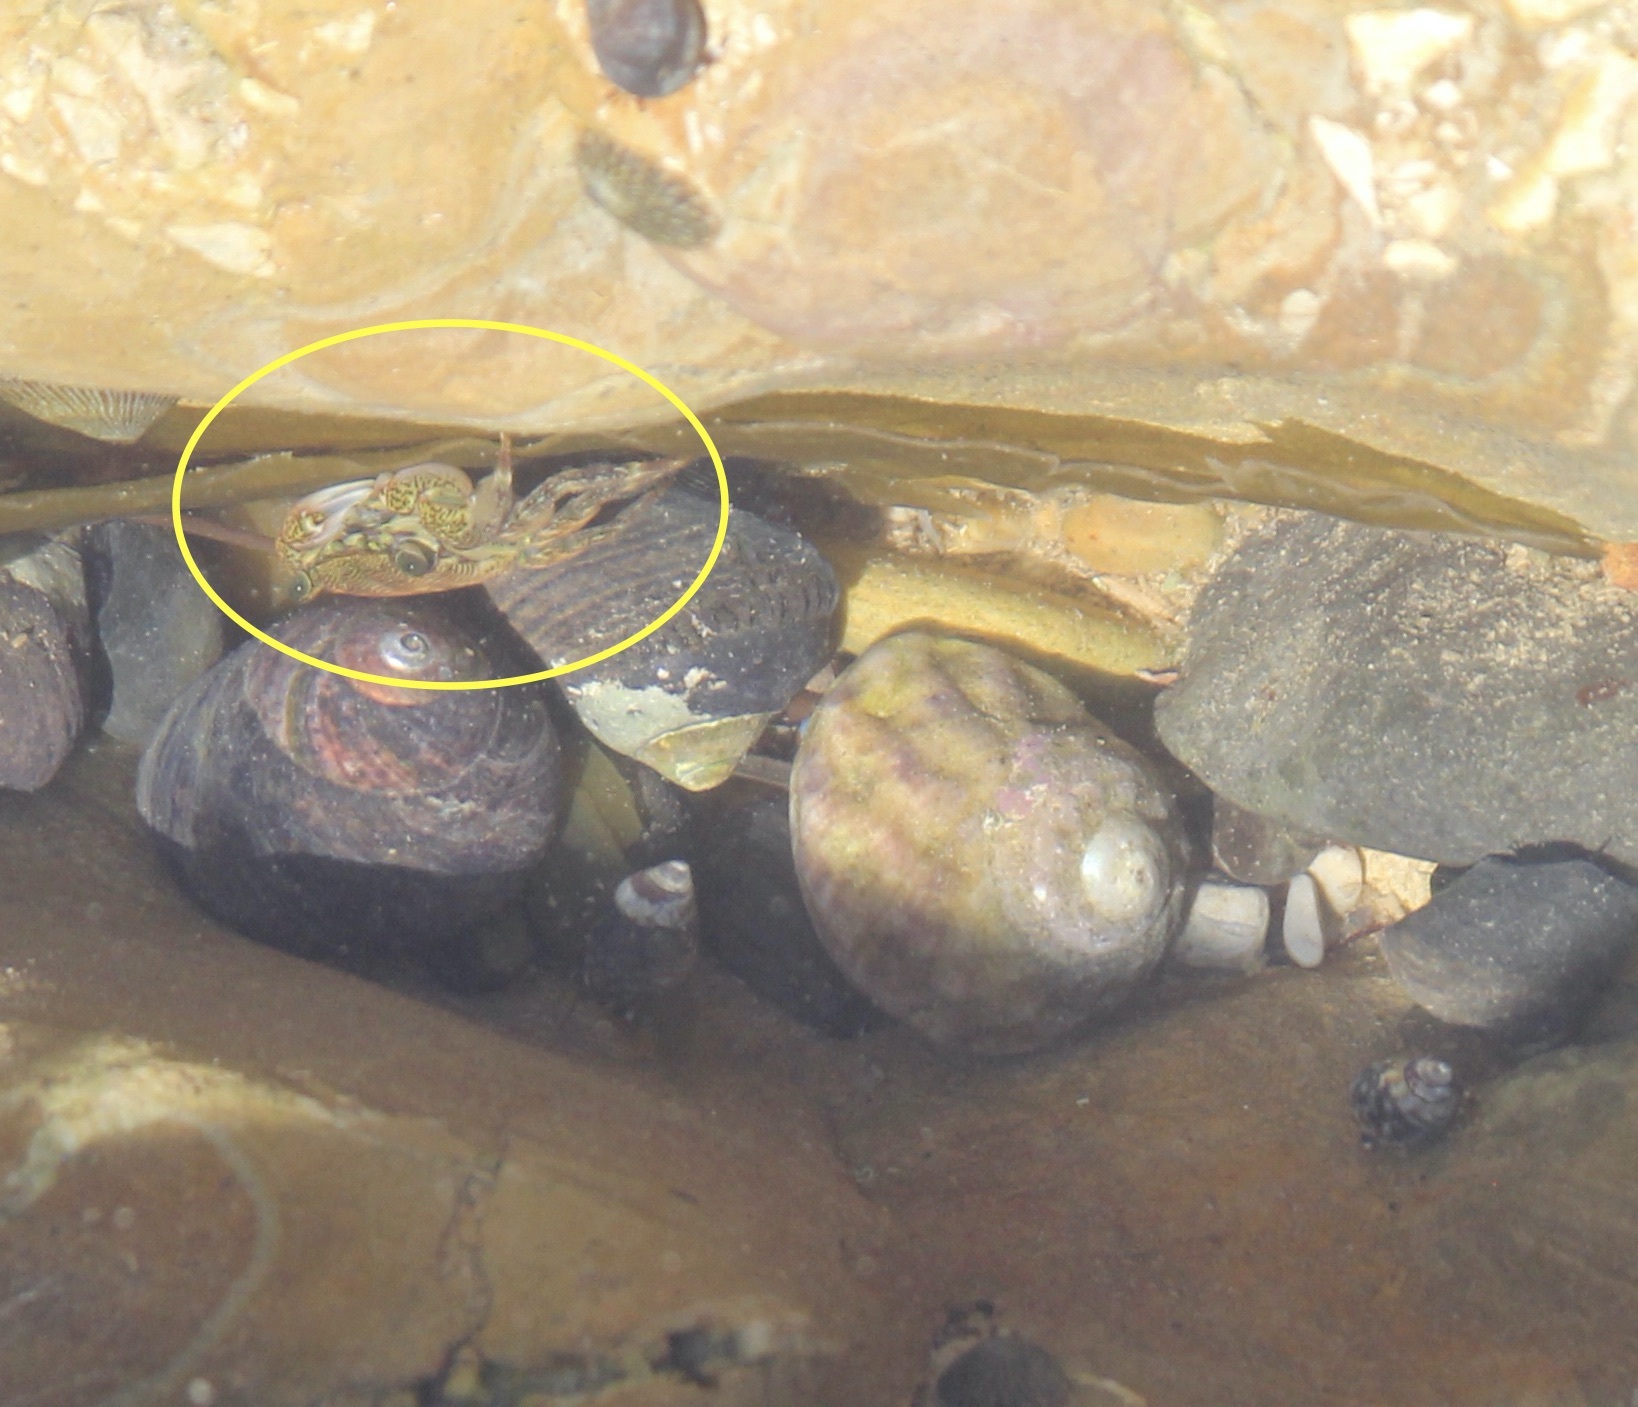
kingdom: Animalia
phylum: Arthropoda
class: Malacostraca
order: Decapoda
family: Grapsidae
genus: Pachygrapsus
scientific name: Pachygrapsus crassipes
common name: Striped shore crab
